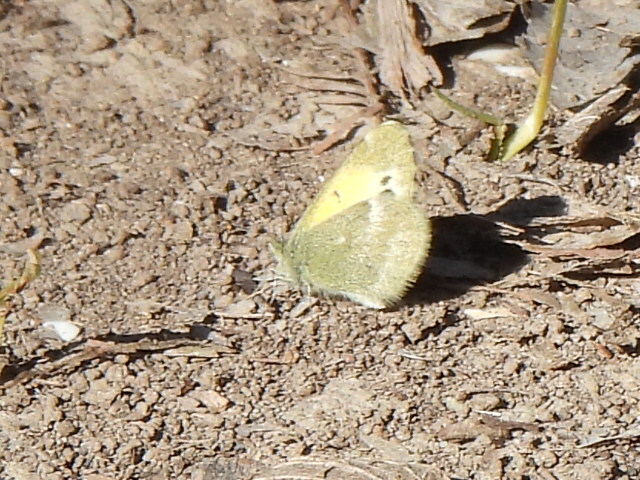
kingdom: Animalia
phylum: Arthropoda
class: Insecta
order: Lepidoptera
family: Pieridae
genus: Nathalis
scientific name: Nathalis iole
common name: Dainty sulphur
